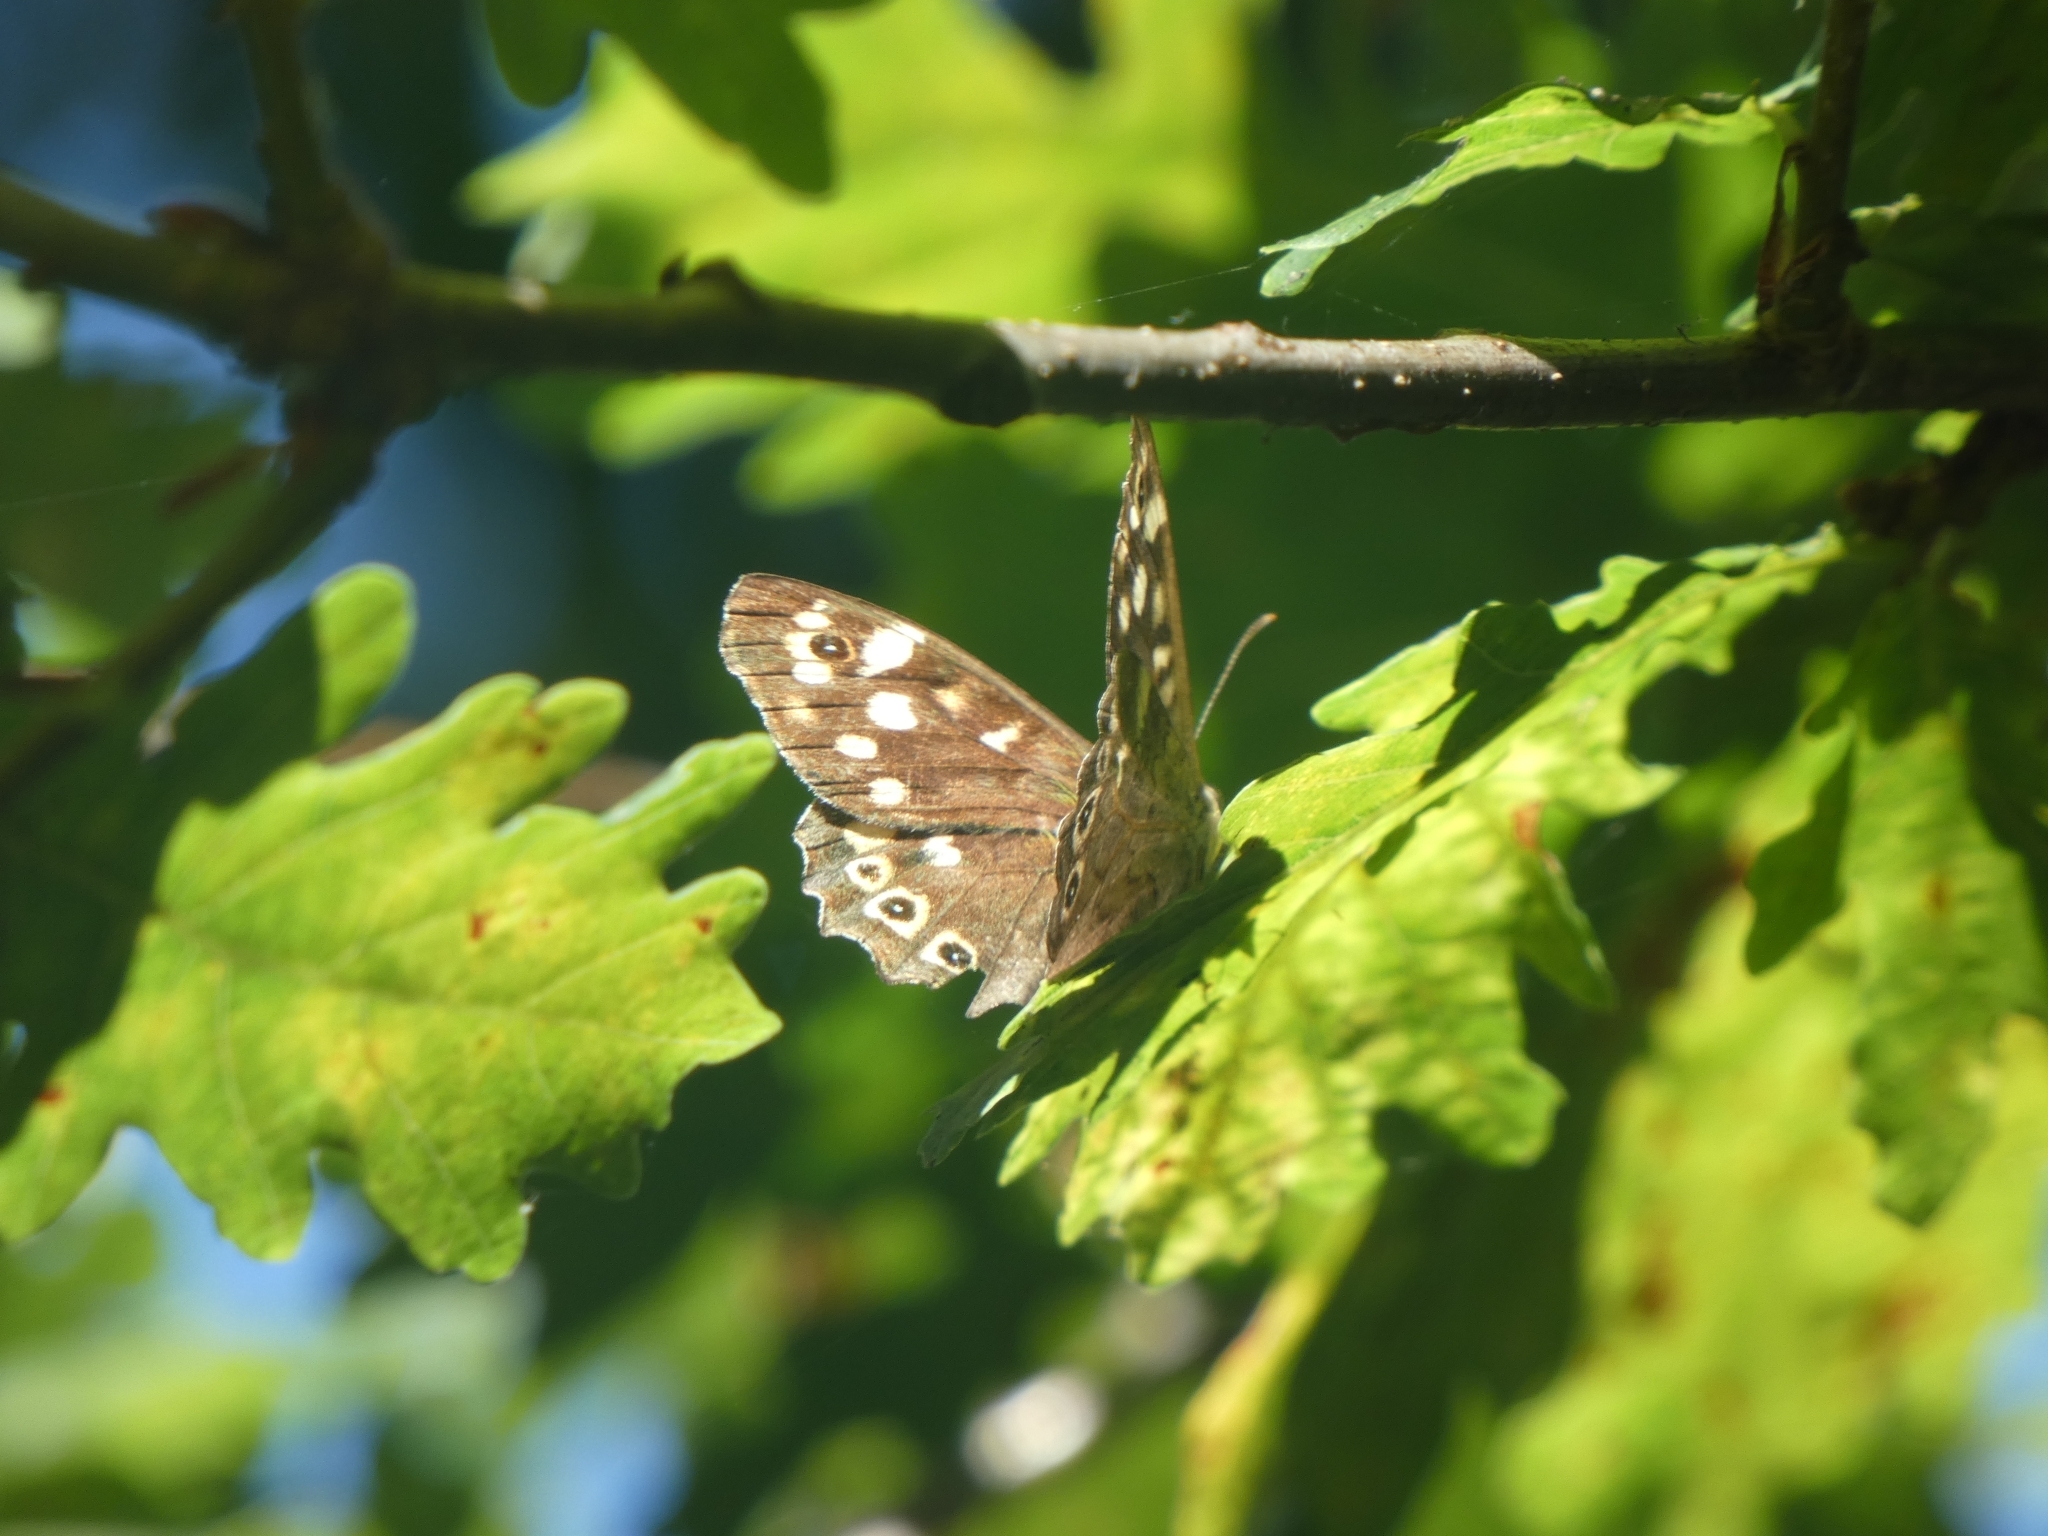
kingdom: Animalia
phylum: Arthropoda
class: Insecta
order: Lepidoptera
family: Nymphalidae
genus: Pararge
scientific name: Pararge aegeria
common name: Speckled wood
